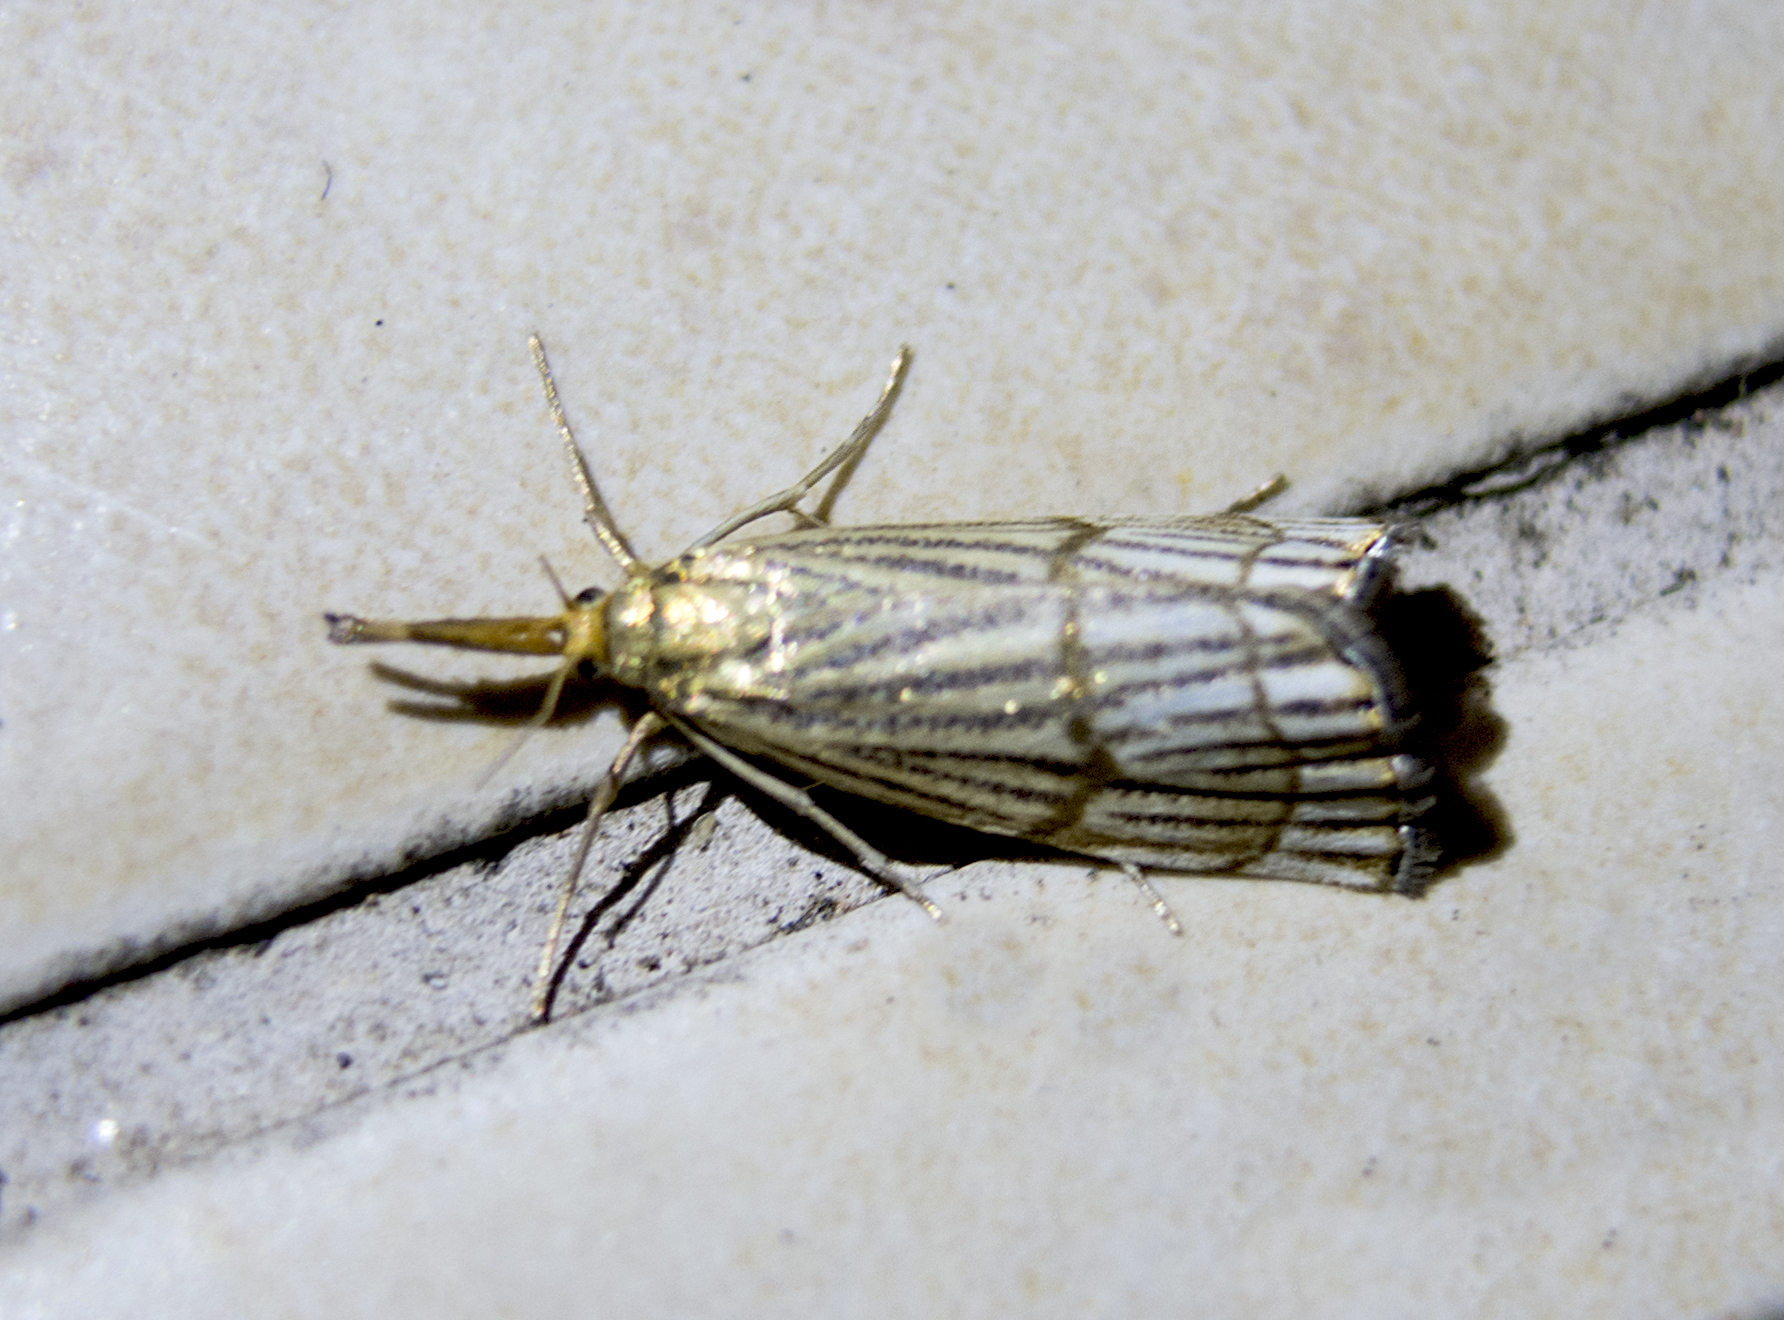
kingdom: Animalia
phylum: Arthropoda
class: Insecta
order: Lepidoptera
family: Crambidae
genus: Chrysocrambus
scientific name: Chrysocrambus linetella
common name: Orange-bar grass-veneer
